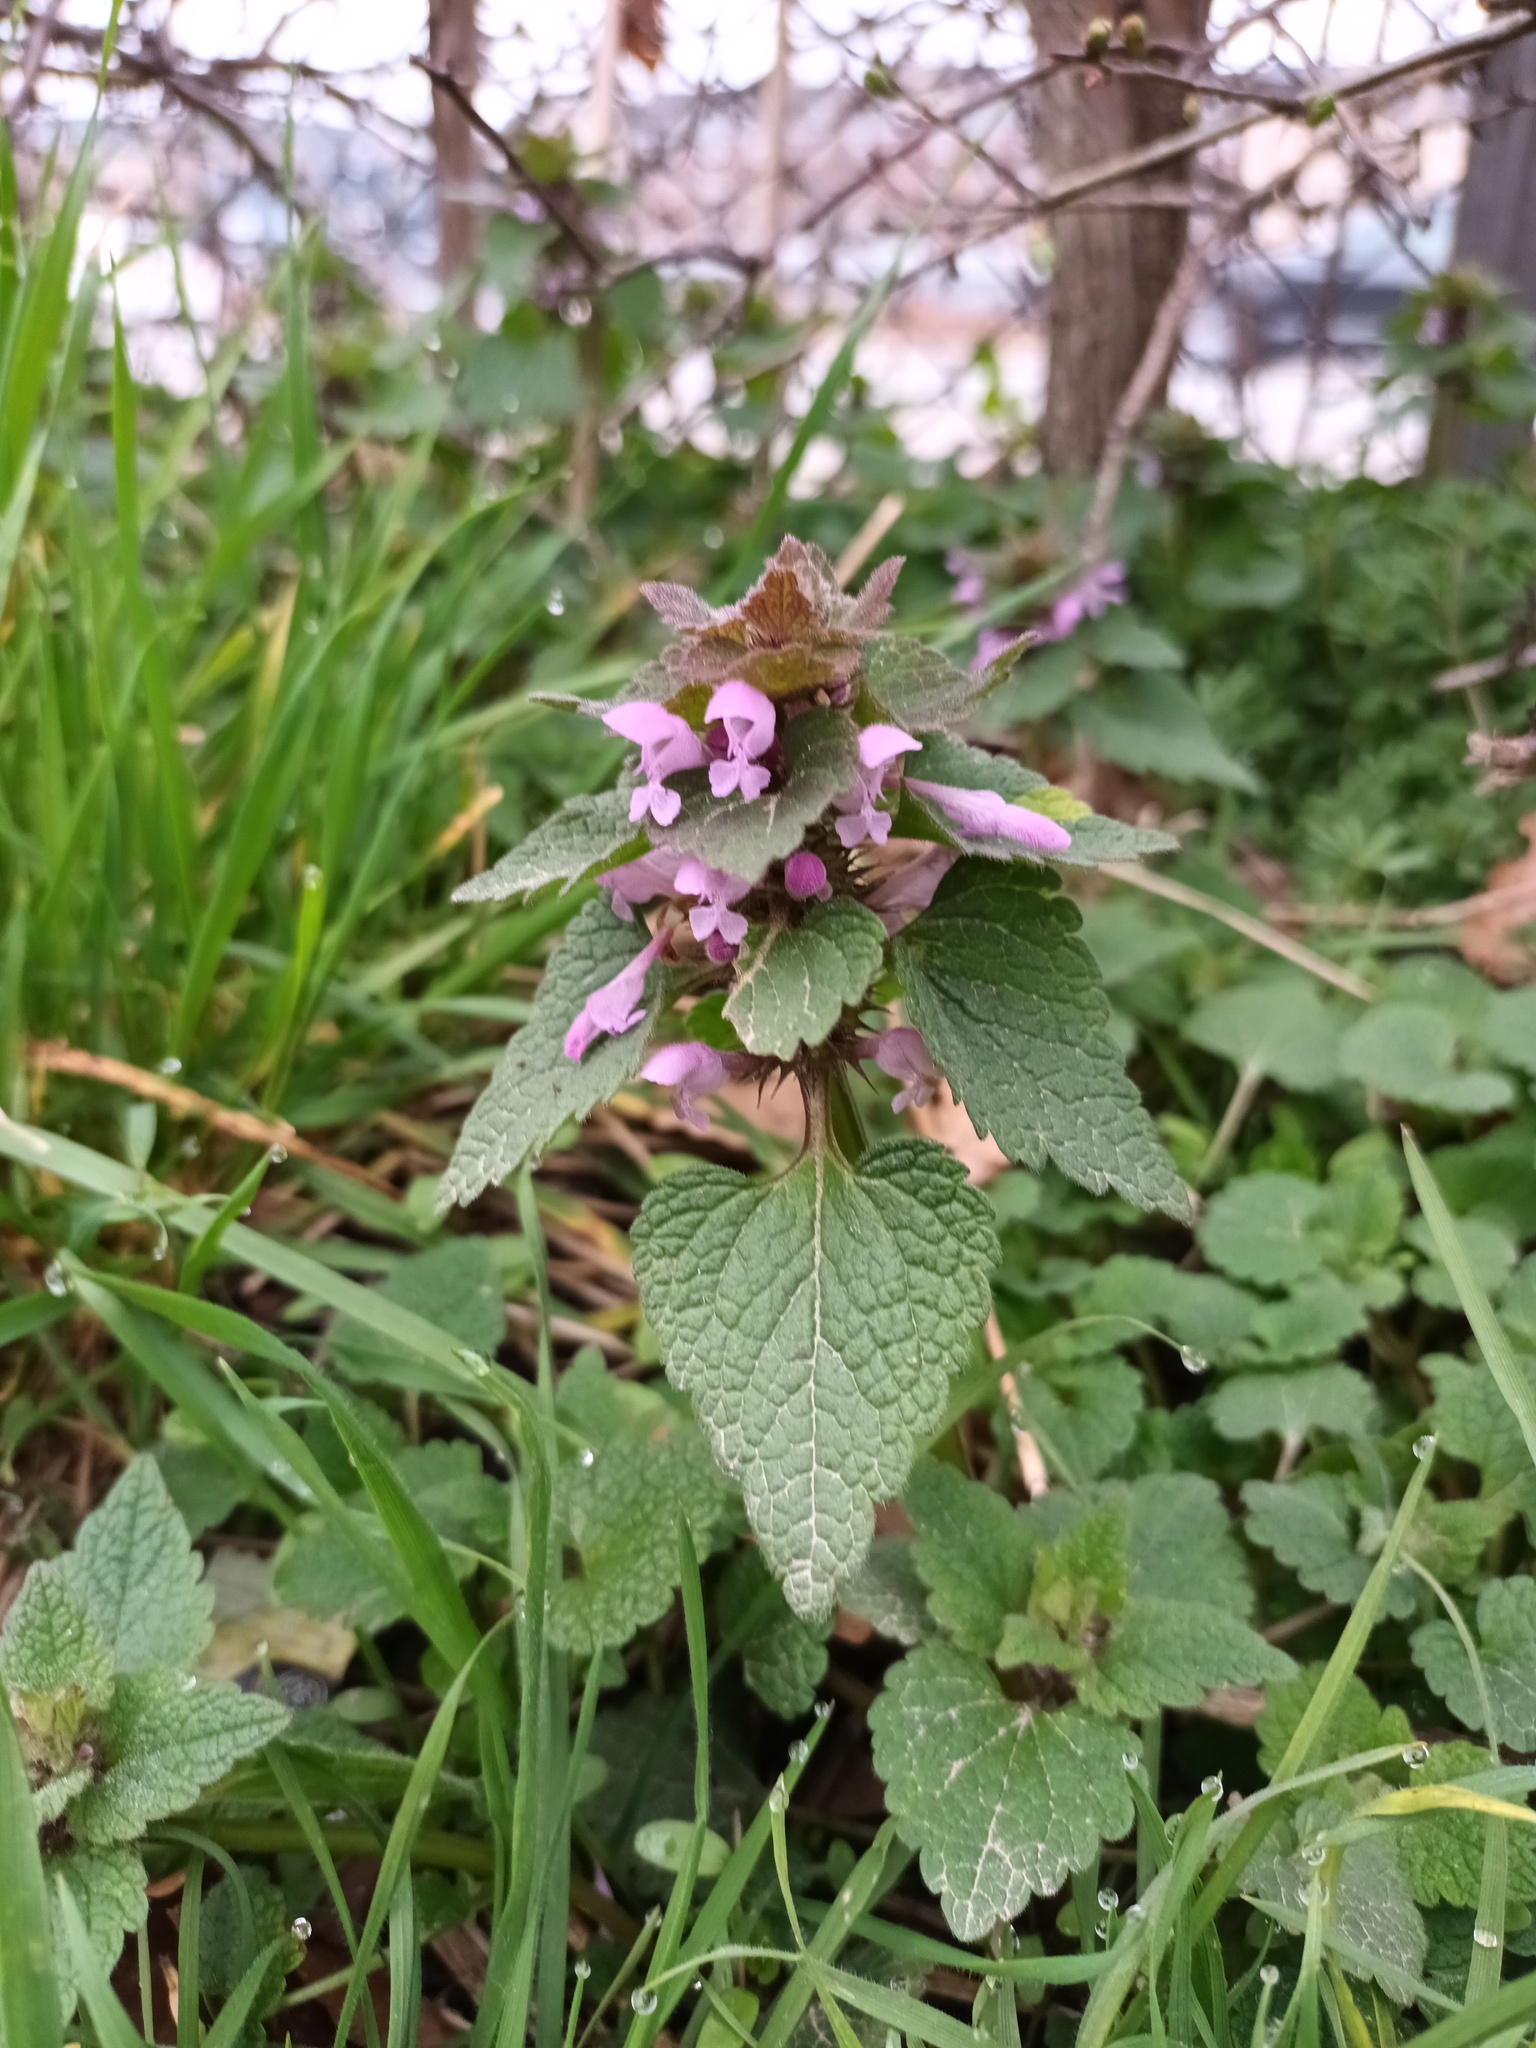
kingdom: Plantae
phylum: Tracheophyta
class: Magnoliopsida
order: Lamiales
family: Lamiaceae
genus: Lamium
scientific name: Lamium purpureum
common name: Red dead-nettle
